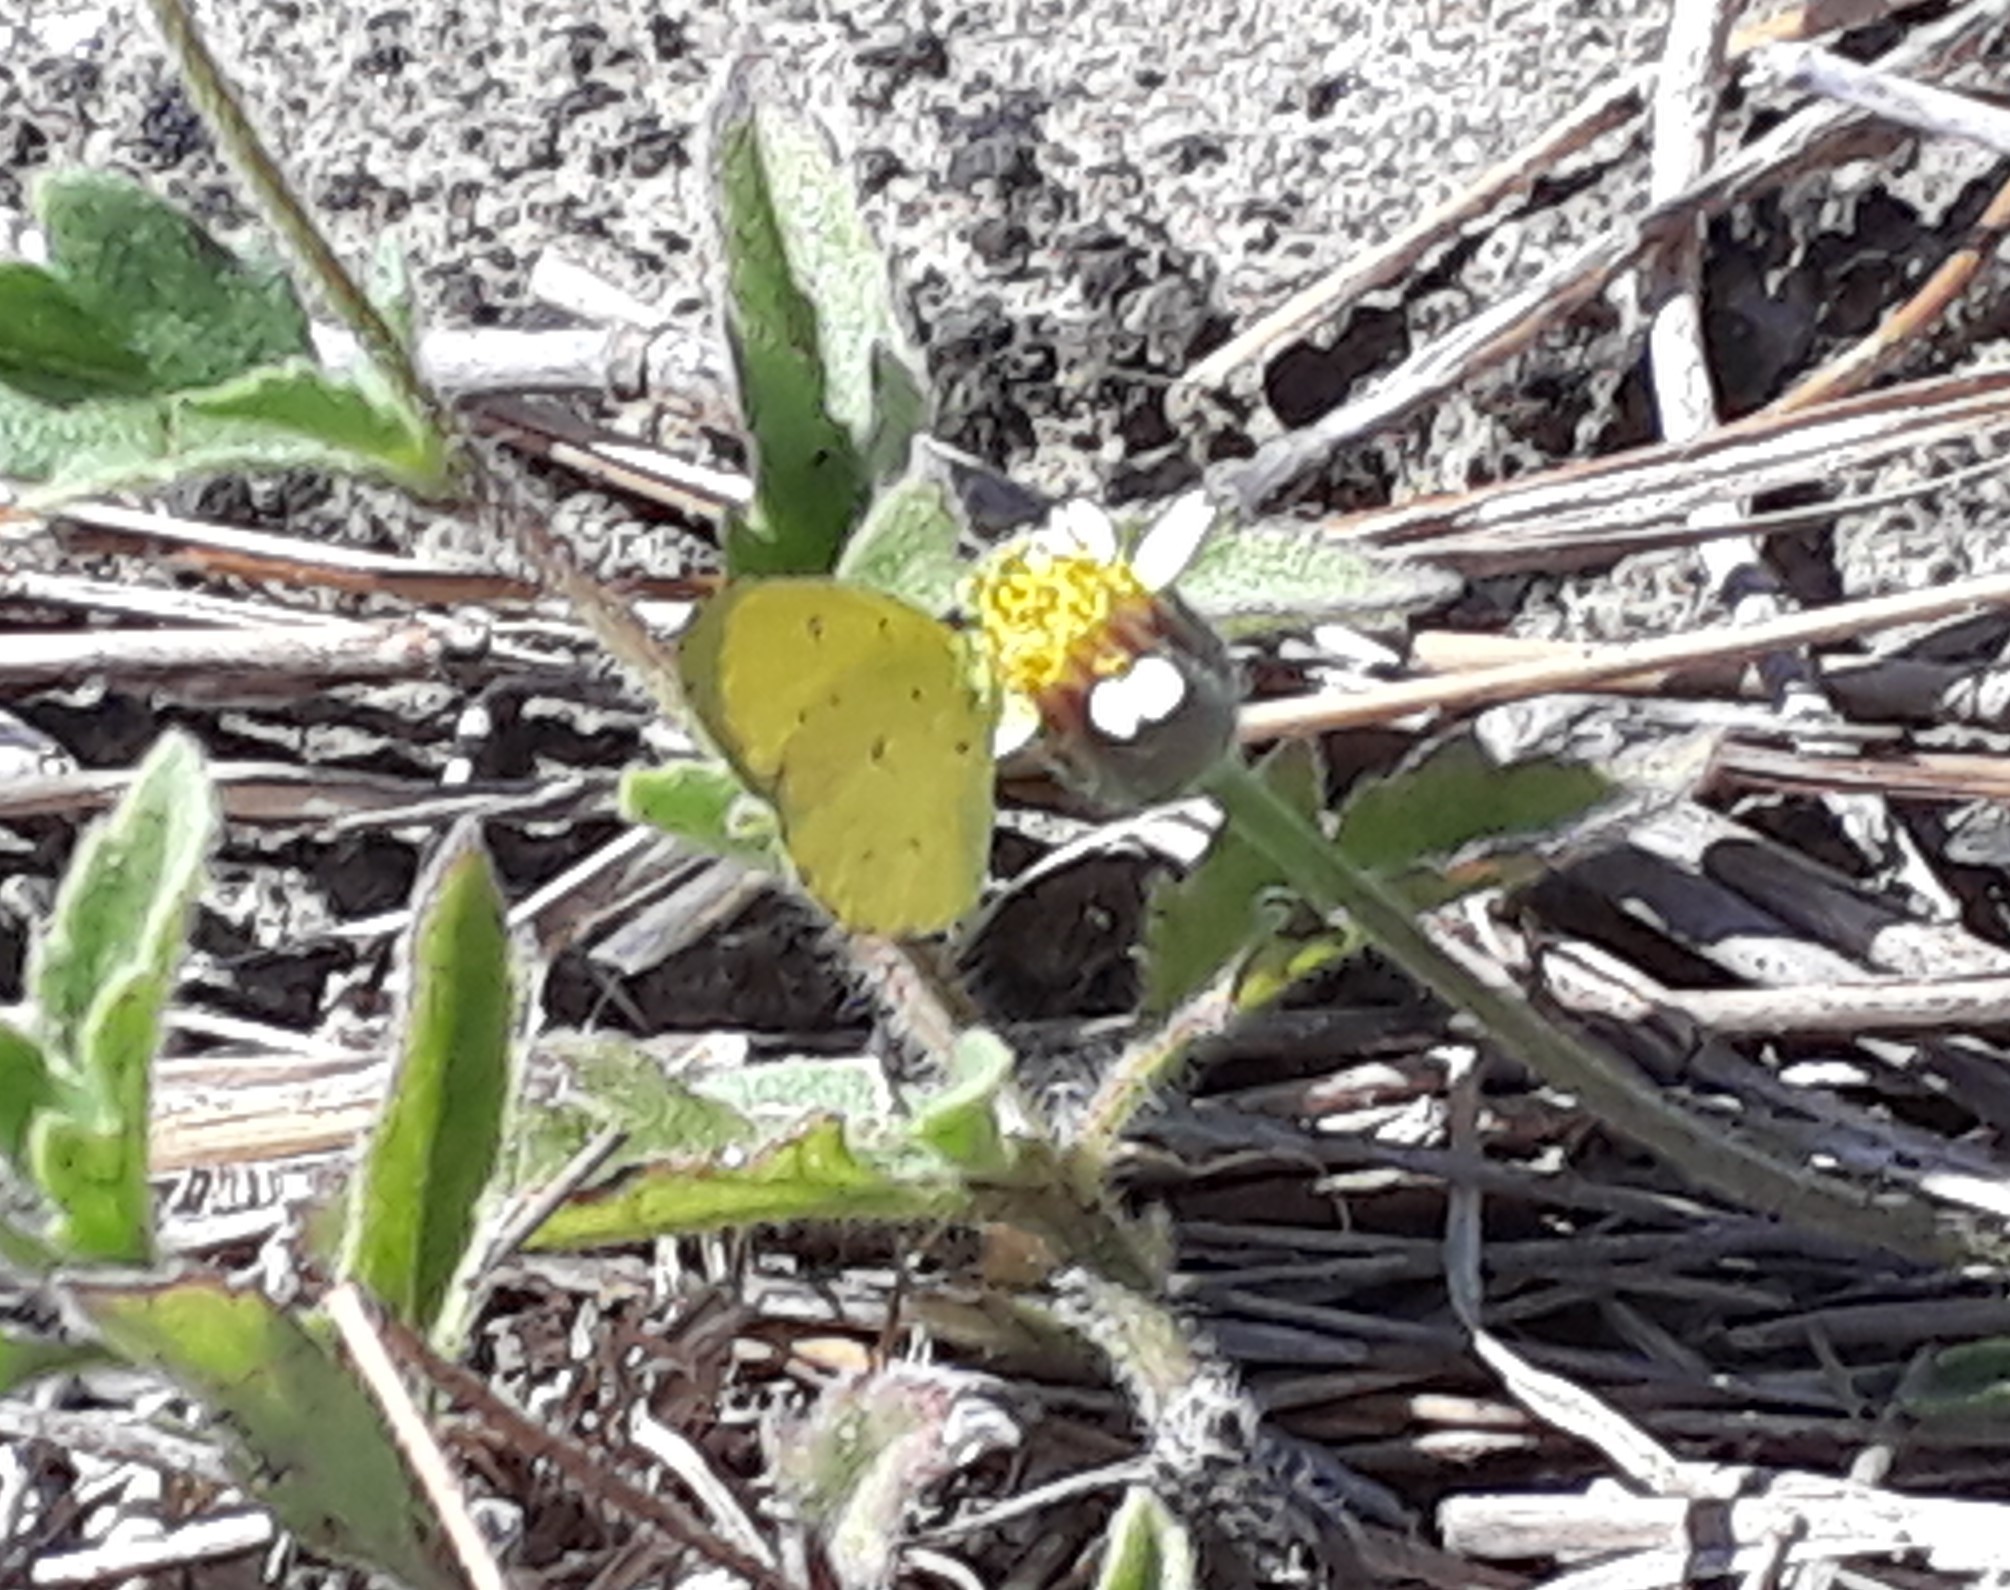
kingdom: Animalia
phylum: Arthropoda
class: Insecta
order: Lepidoptera
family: Pieridae
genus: Eurema
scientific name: Eurema floricola
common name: Malagasy grass yellow
